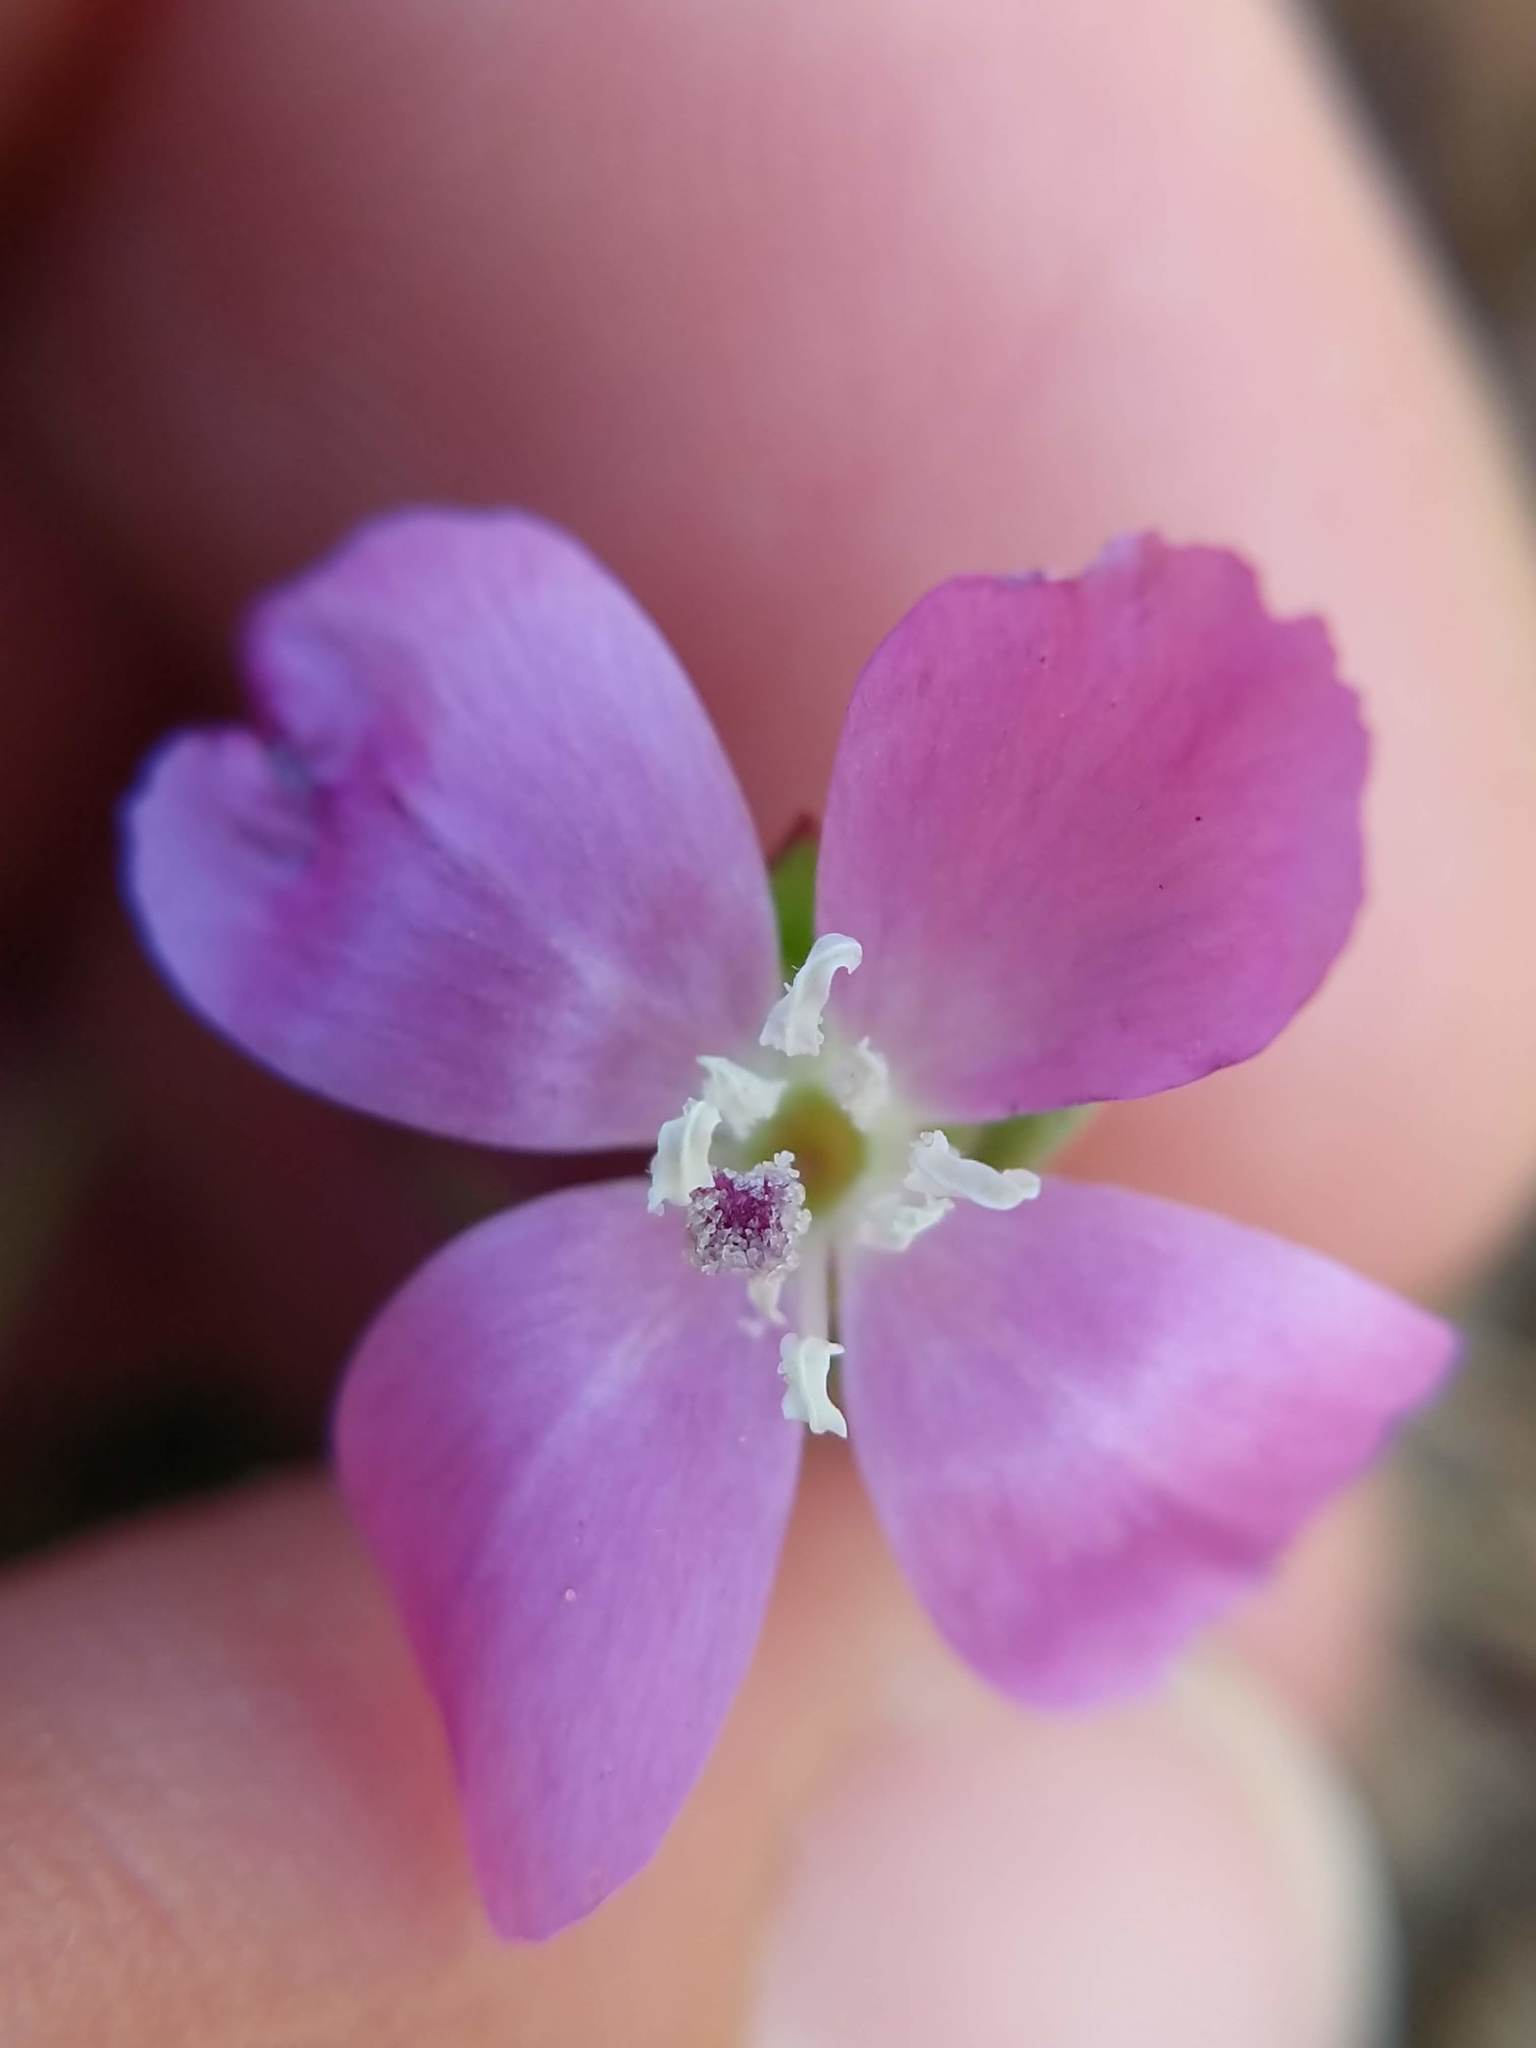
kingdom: Plantae
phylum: Tracheophyta
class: Magnoliopsida
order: Myrtales
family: Onagraceae
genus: Clarkia
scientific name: Clarkia purpurea
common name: Purple clarkia
